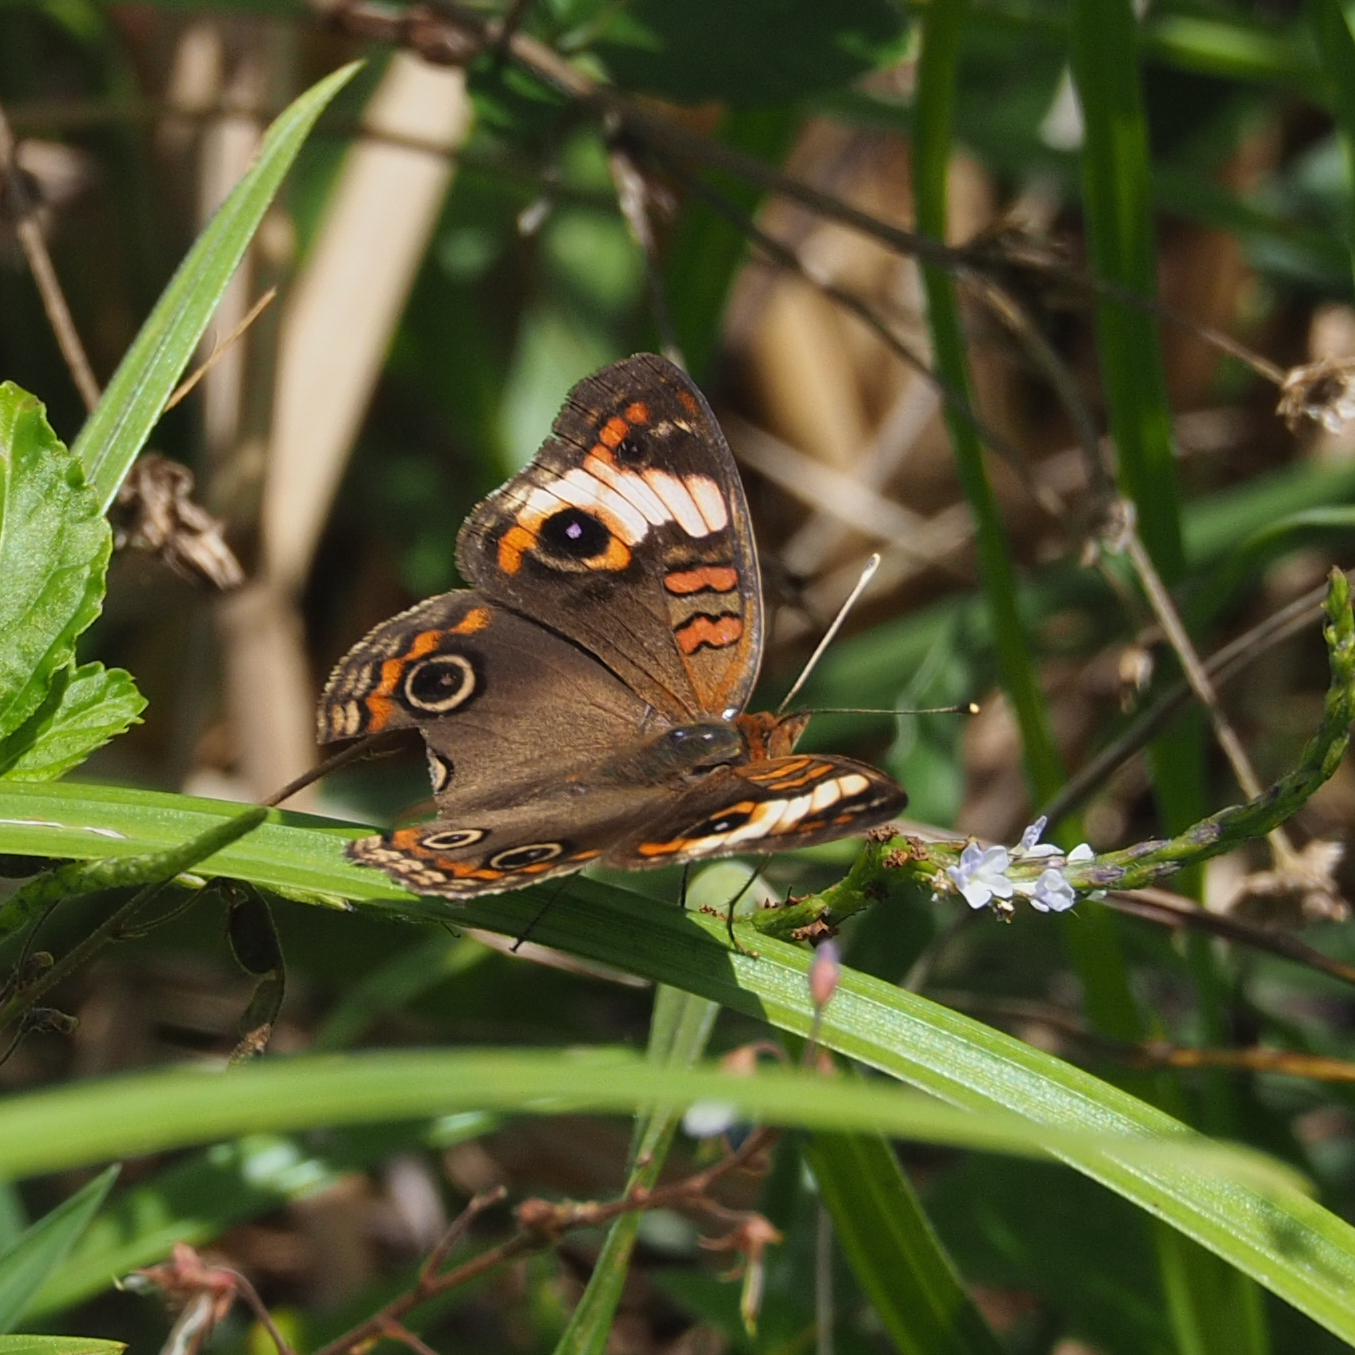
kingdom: Animalia
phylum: Arthropoda
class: Insecta
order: Lepidoptera
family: Nymphalidae
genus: Junonia
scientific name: Junonia lavinia
